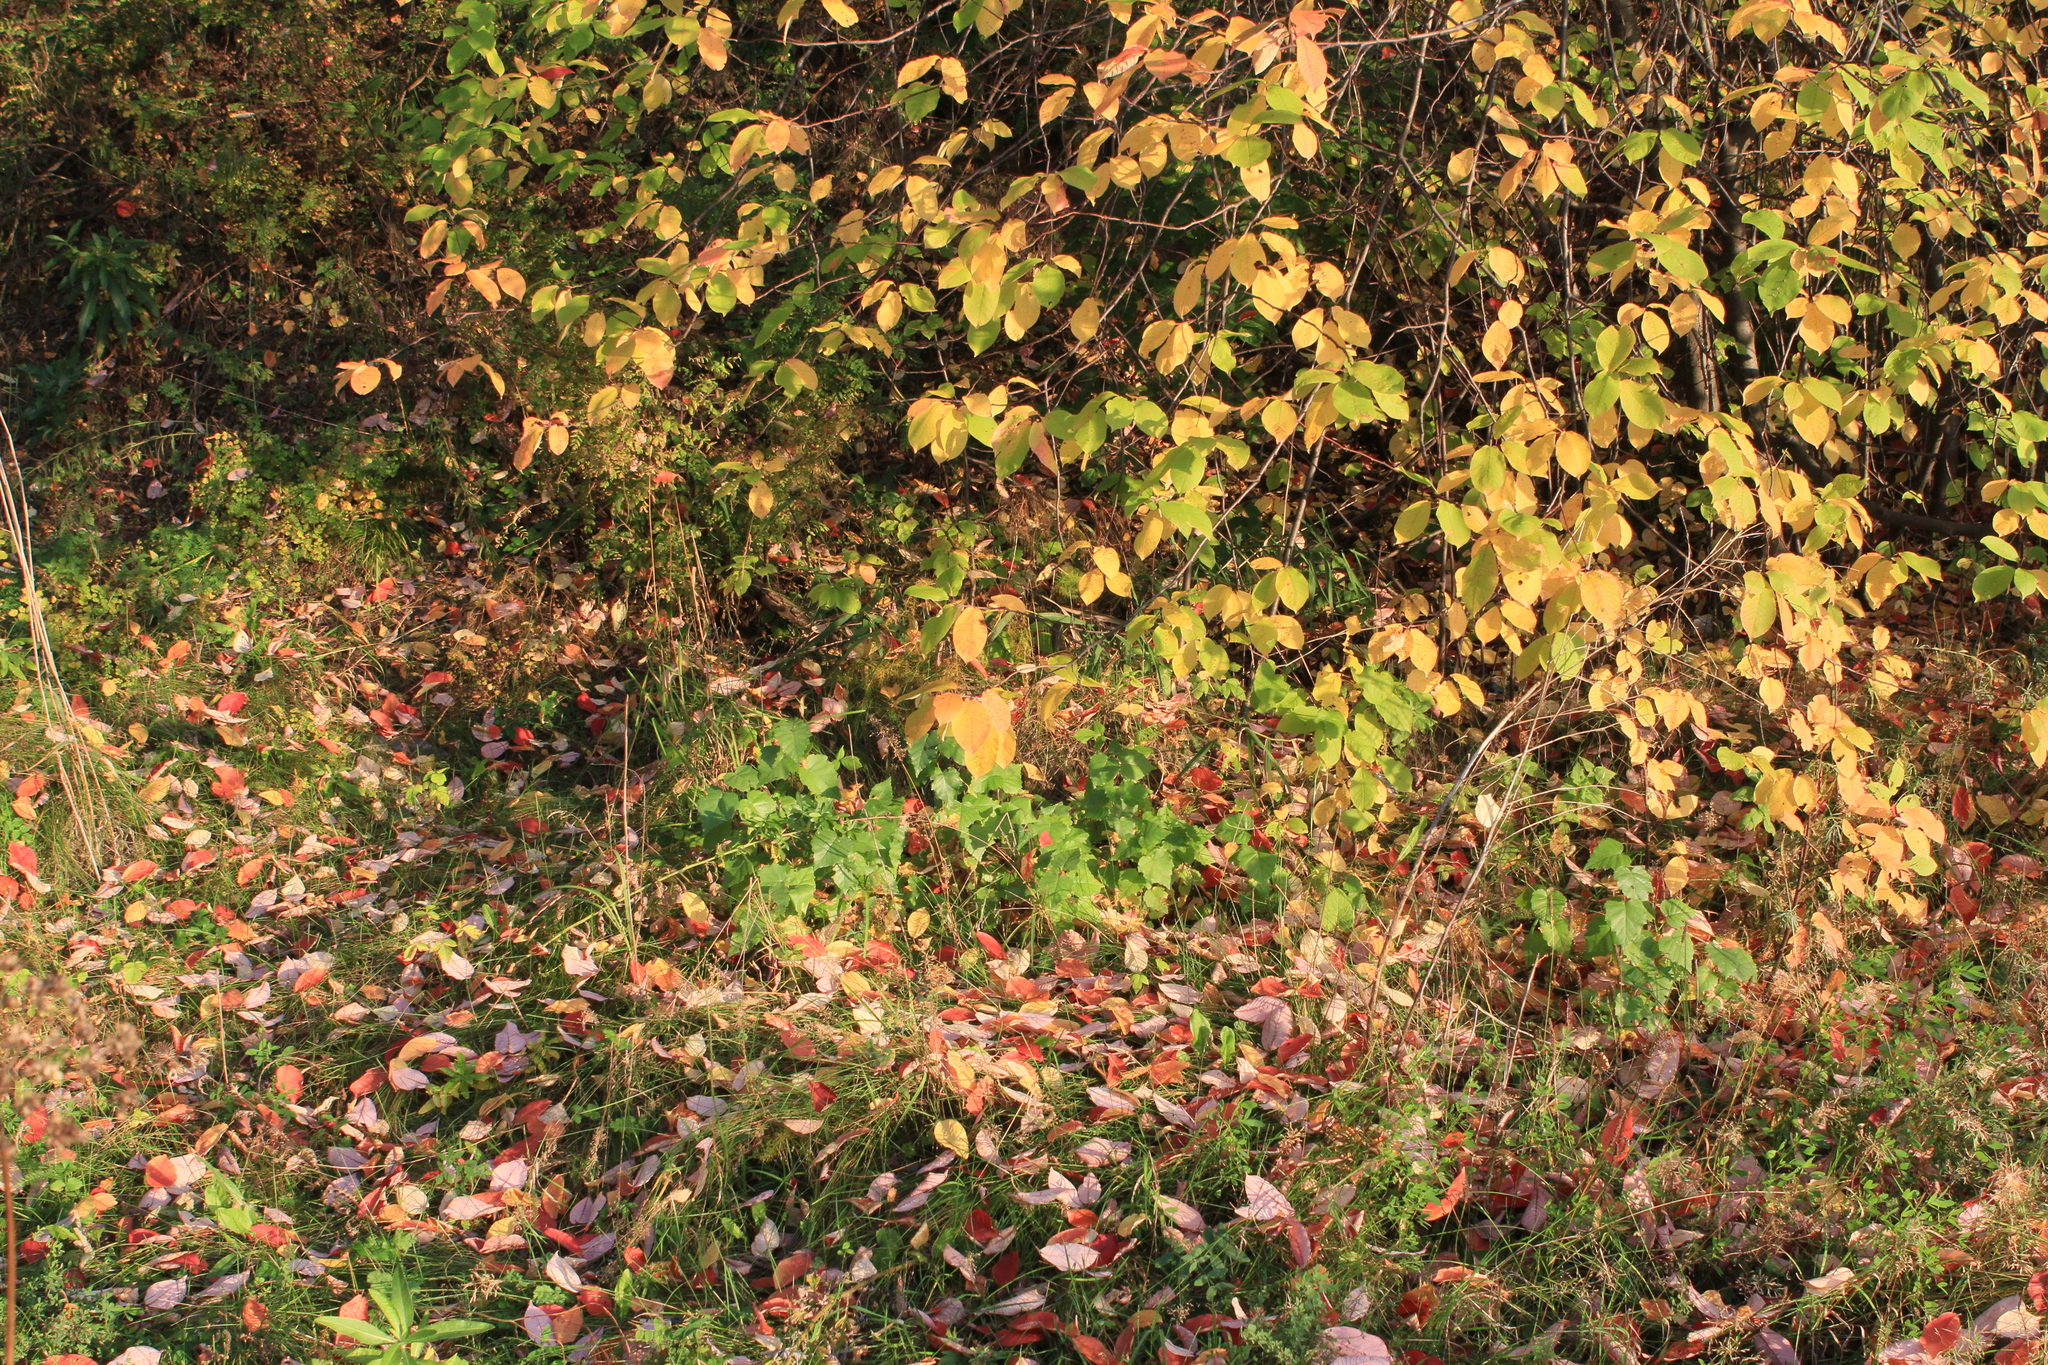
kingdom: Plantae
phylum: Tracheophyta
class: Magnoliopsida
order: Rosales
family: Rosaceae
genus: Prunus
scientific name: Prunus padus
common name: Bird cherry
